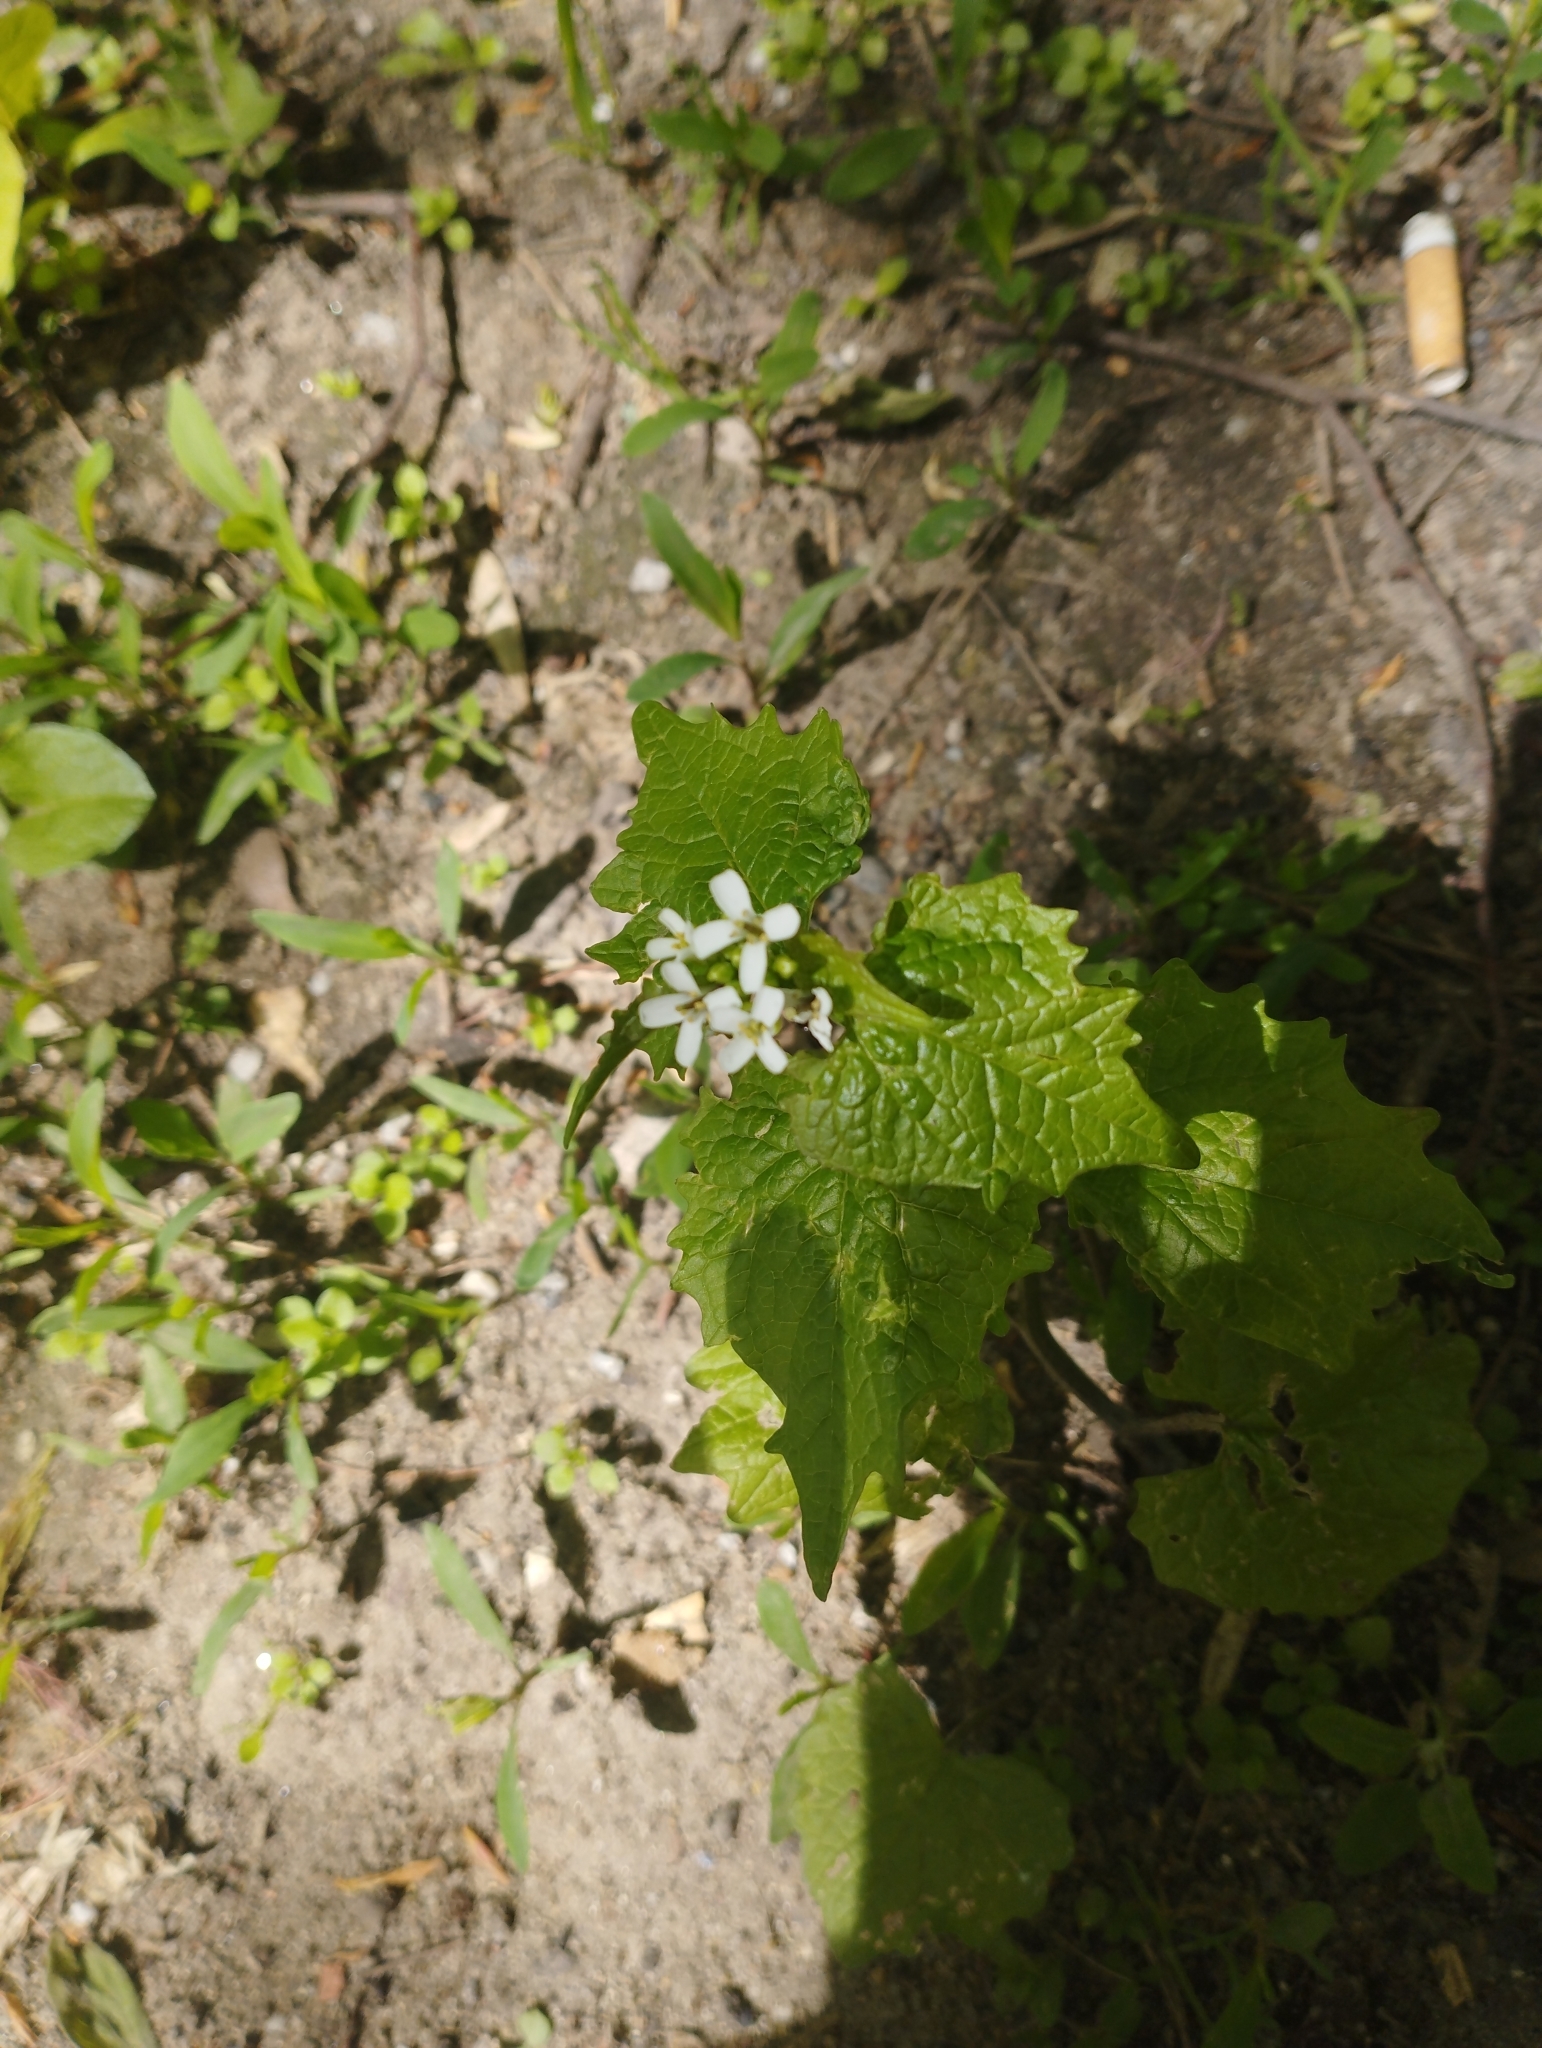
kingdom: Plantae
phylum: Tracheophyta
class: Magnoliopsida
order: Brassicales
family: Brassicaceae
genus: Alliaria
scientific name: Alliaria petiolata
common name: Garlic mustard
